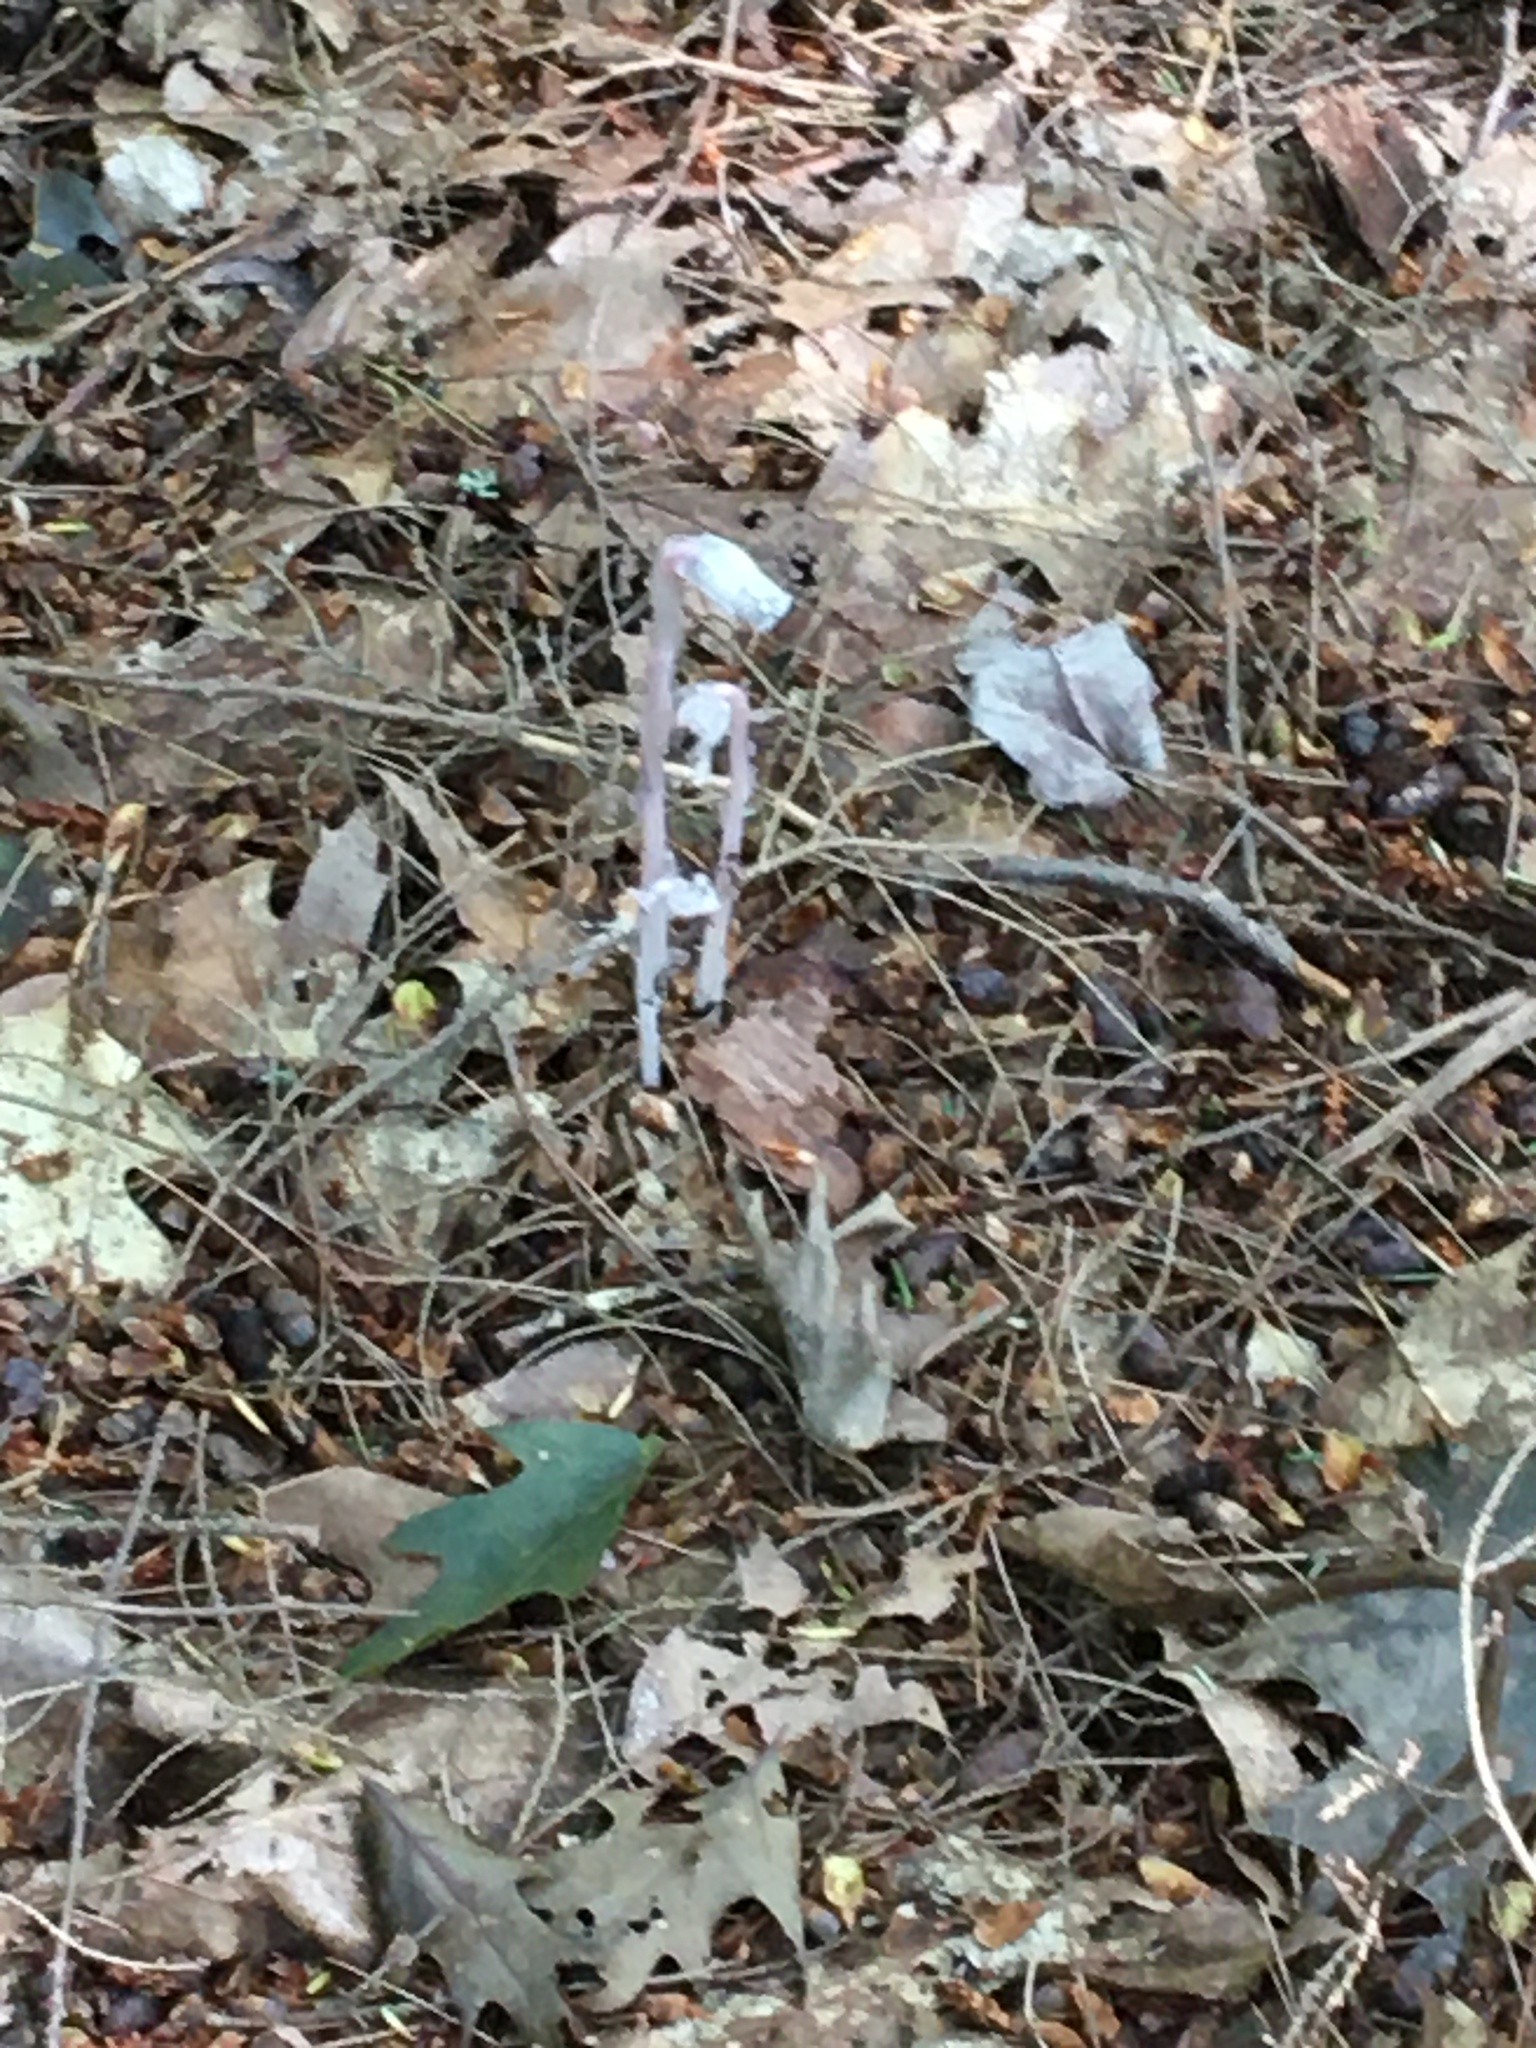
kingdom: Plantae
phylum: Tracheophyta
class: Magnoliopsida
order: Ericales
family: Ericaceae
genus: Monotropa
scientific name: Monotropa uniflora
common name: Convulsion root
